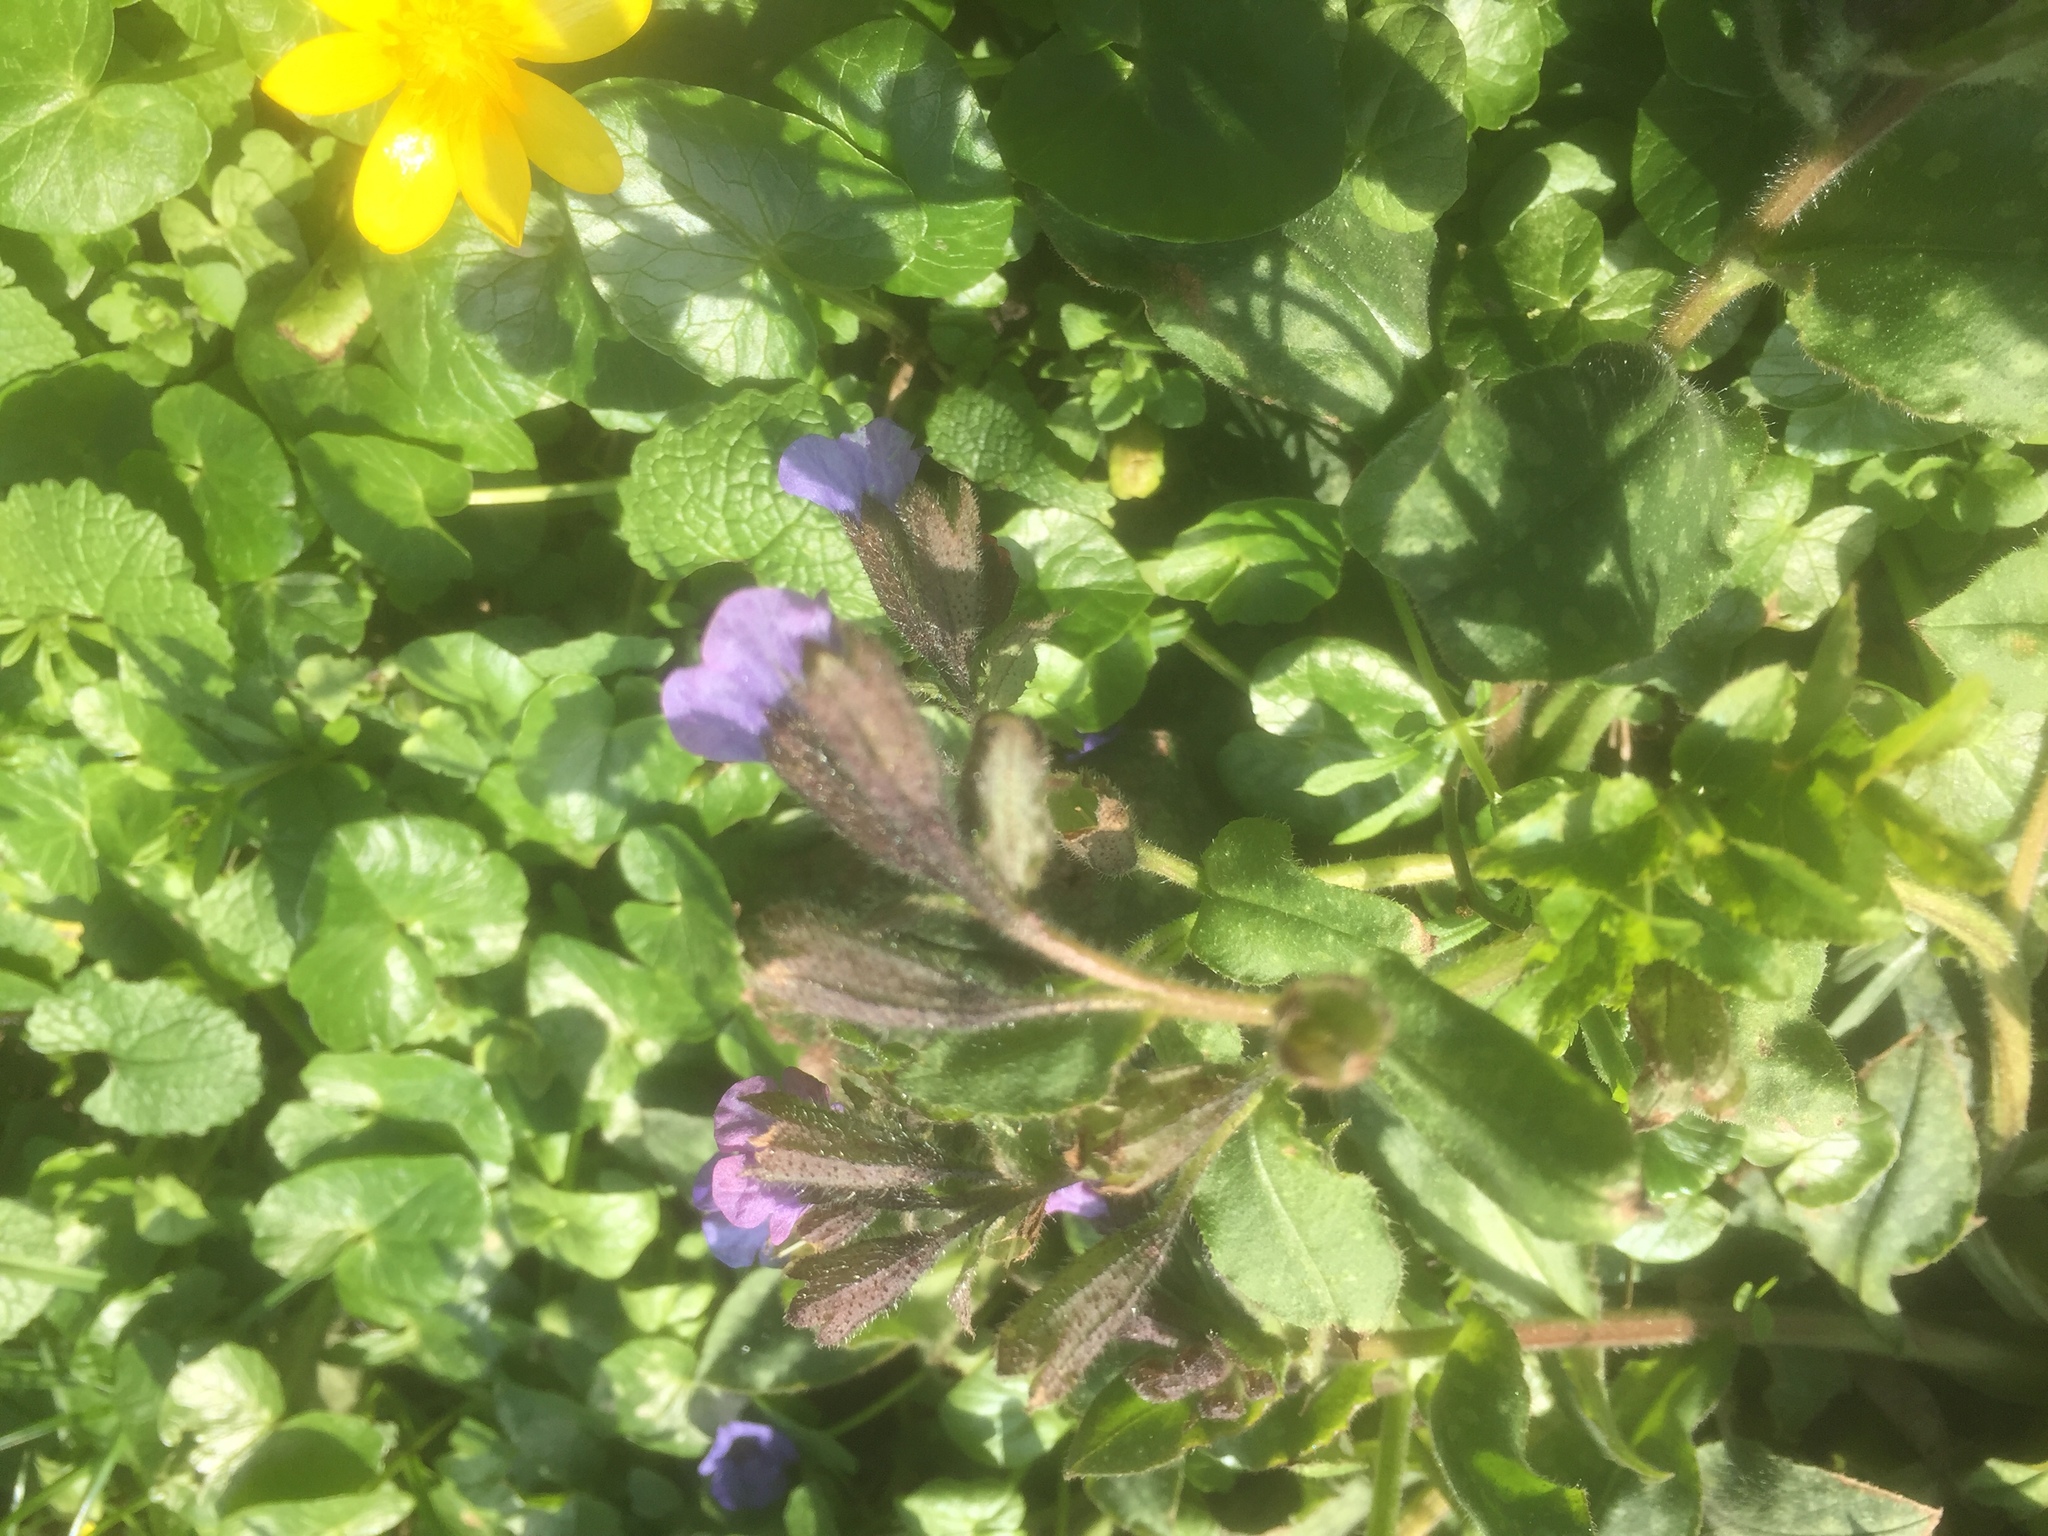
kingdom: Plantae
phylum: Tracheophyta
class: Magnoliopsida
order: Boraginales
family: Boraginaceae
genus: Pulmonaria
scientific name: Pulmonaria officinalis
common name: Lungwort
